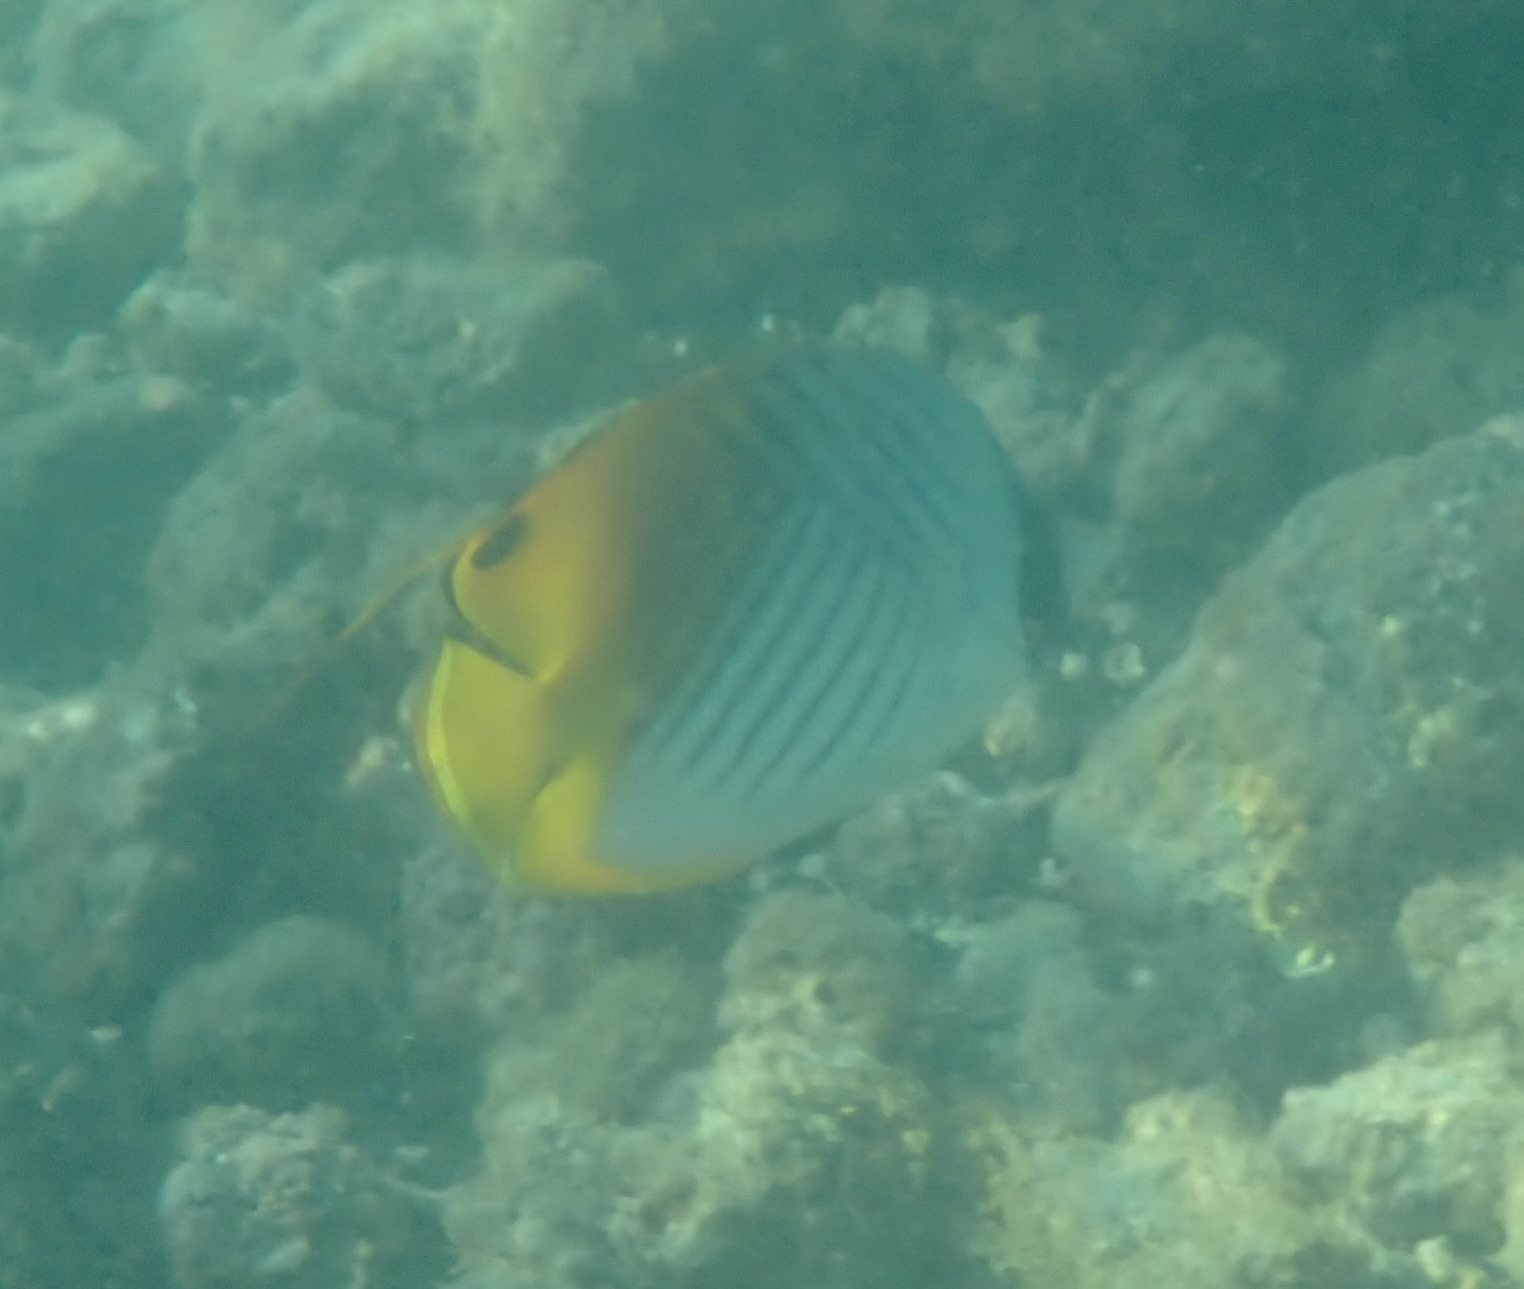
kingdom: Animalia
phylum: Chordata
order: Perciformes
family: Chaetodontidae
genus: Chaetodon
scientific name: Chaetodon auriga
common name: Threadfin butterflyfish
